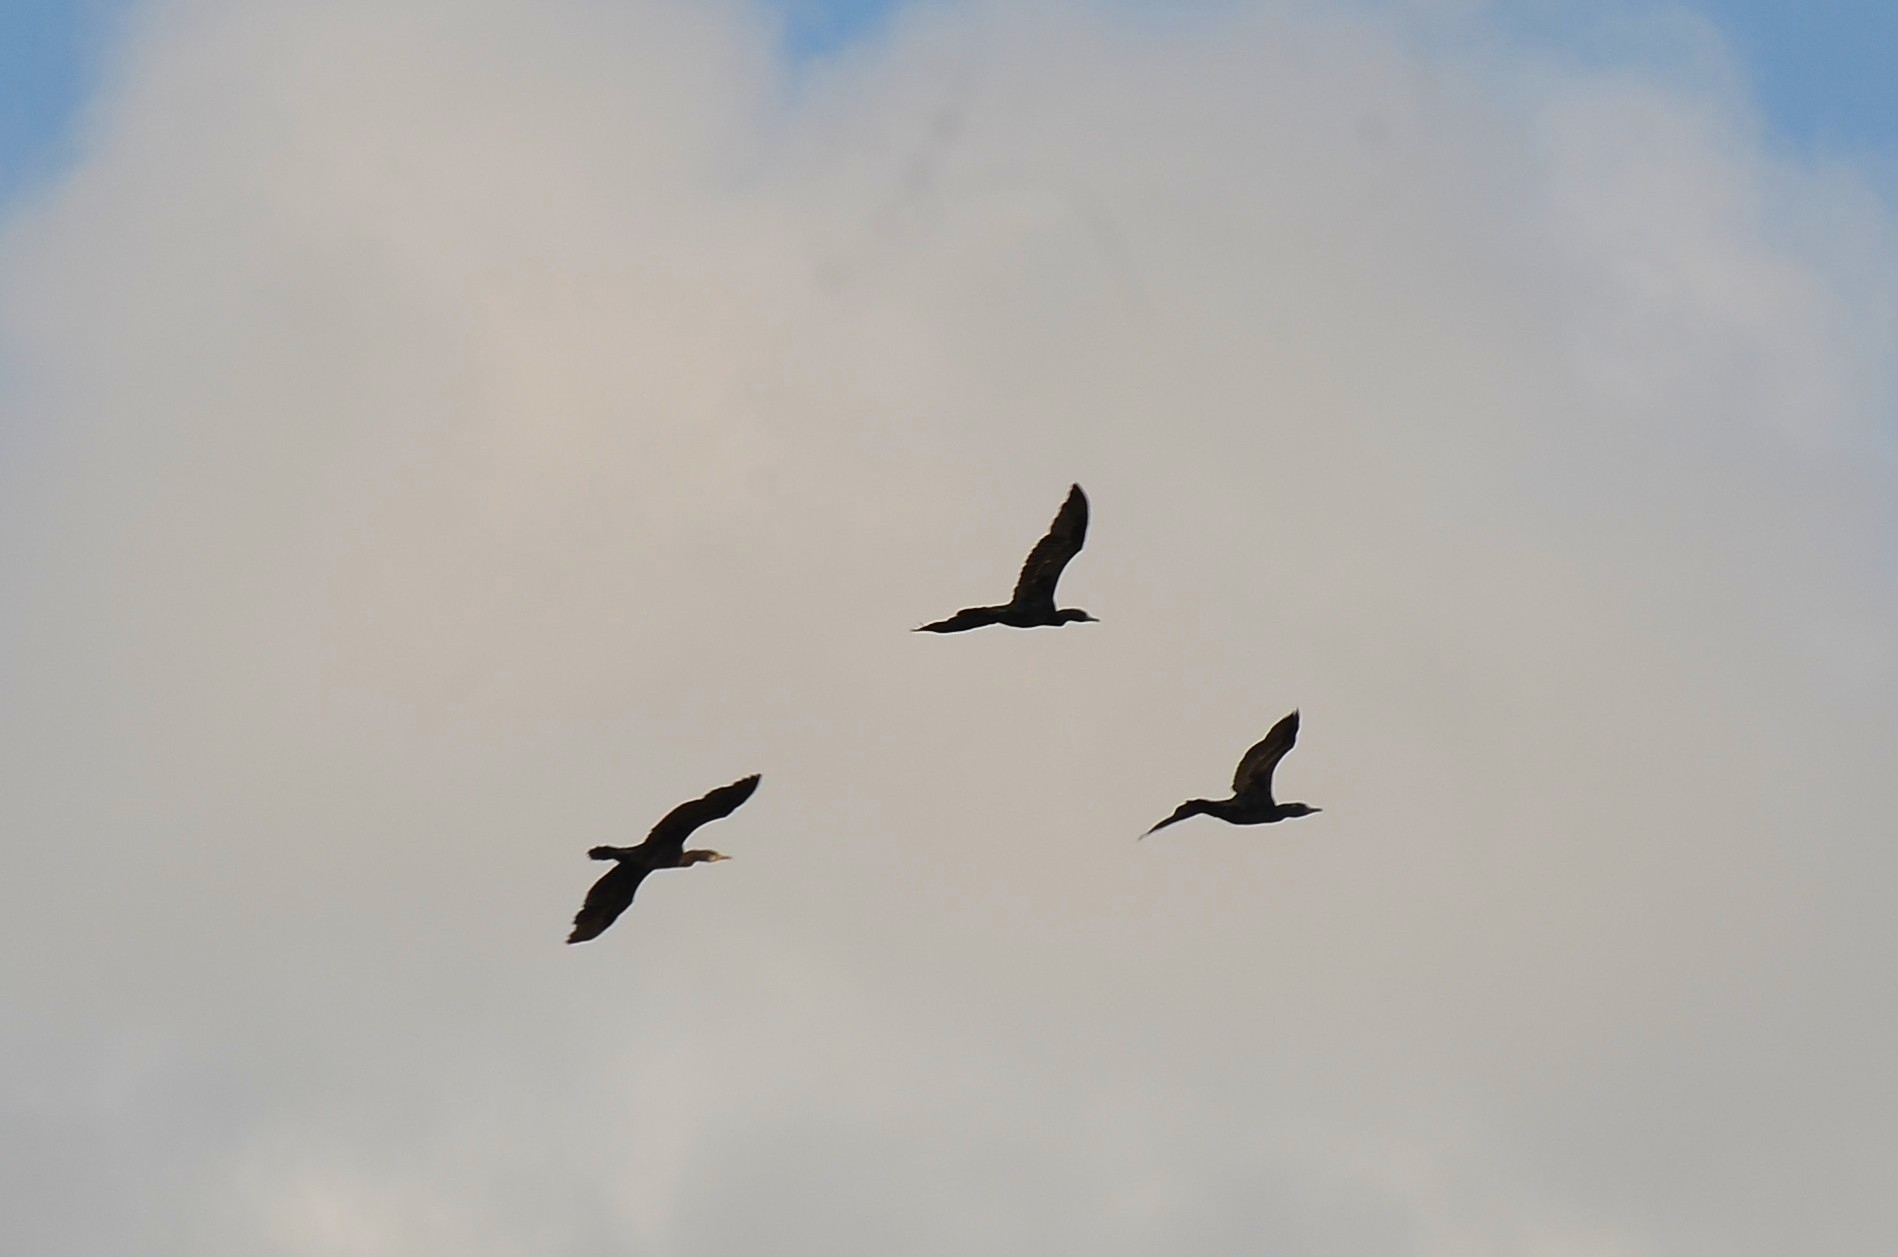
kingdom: Animalia
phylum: Chordata
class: Aves
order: Suliformes
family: Phalacrocoracidae
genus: Phalacrocorax
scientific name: Phalacrocorax fuscicollis
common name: Indian cormorant
